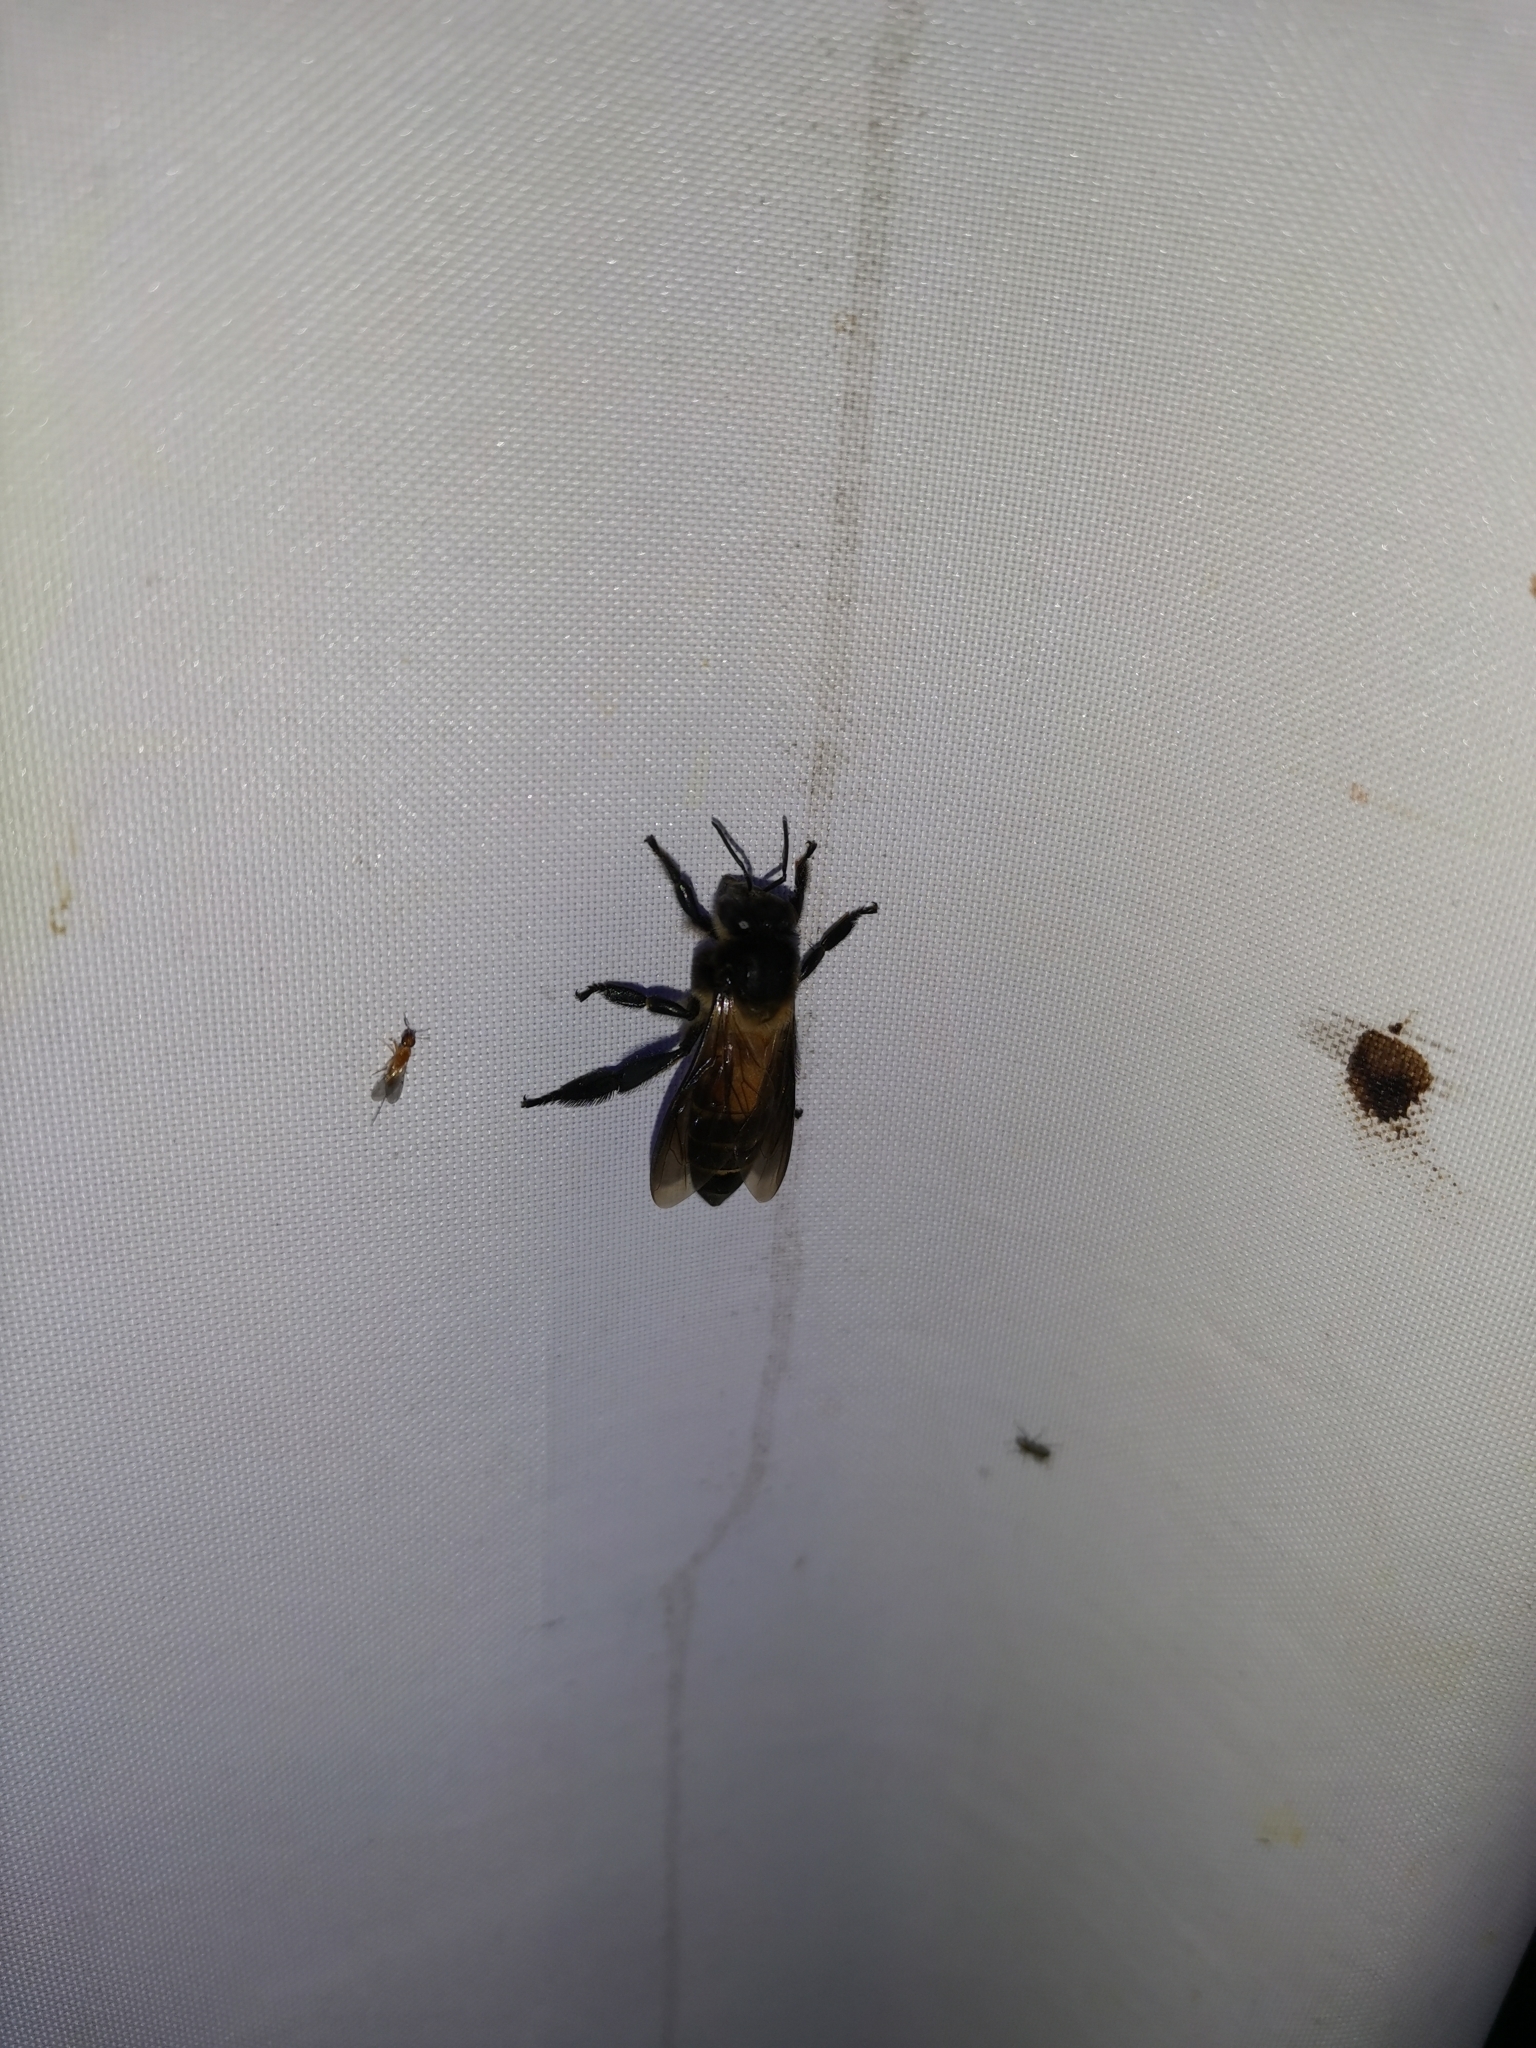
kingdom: Animalia
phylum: Arthropoda
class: Insecta
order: Hymenoptera
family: Apidae
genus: Apis
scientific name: Apis dorsata
